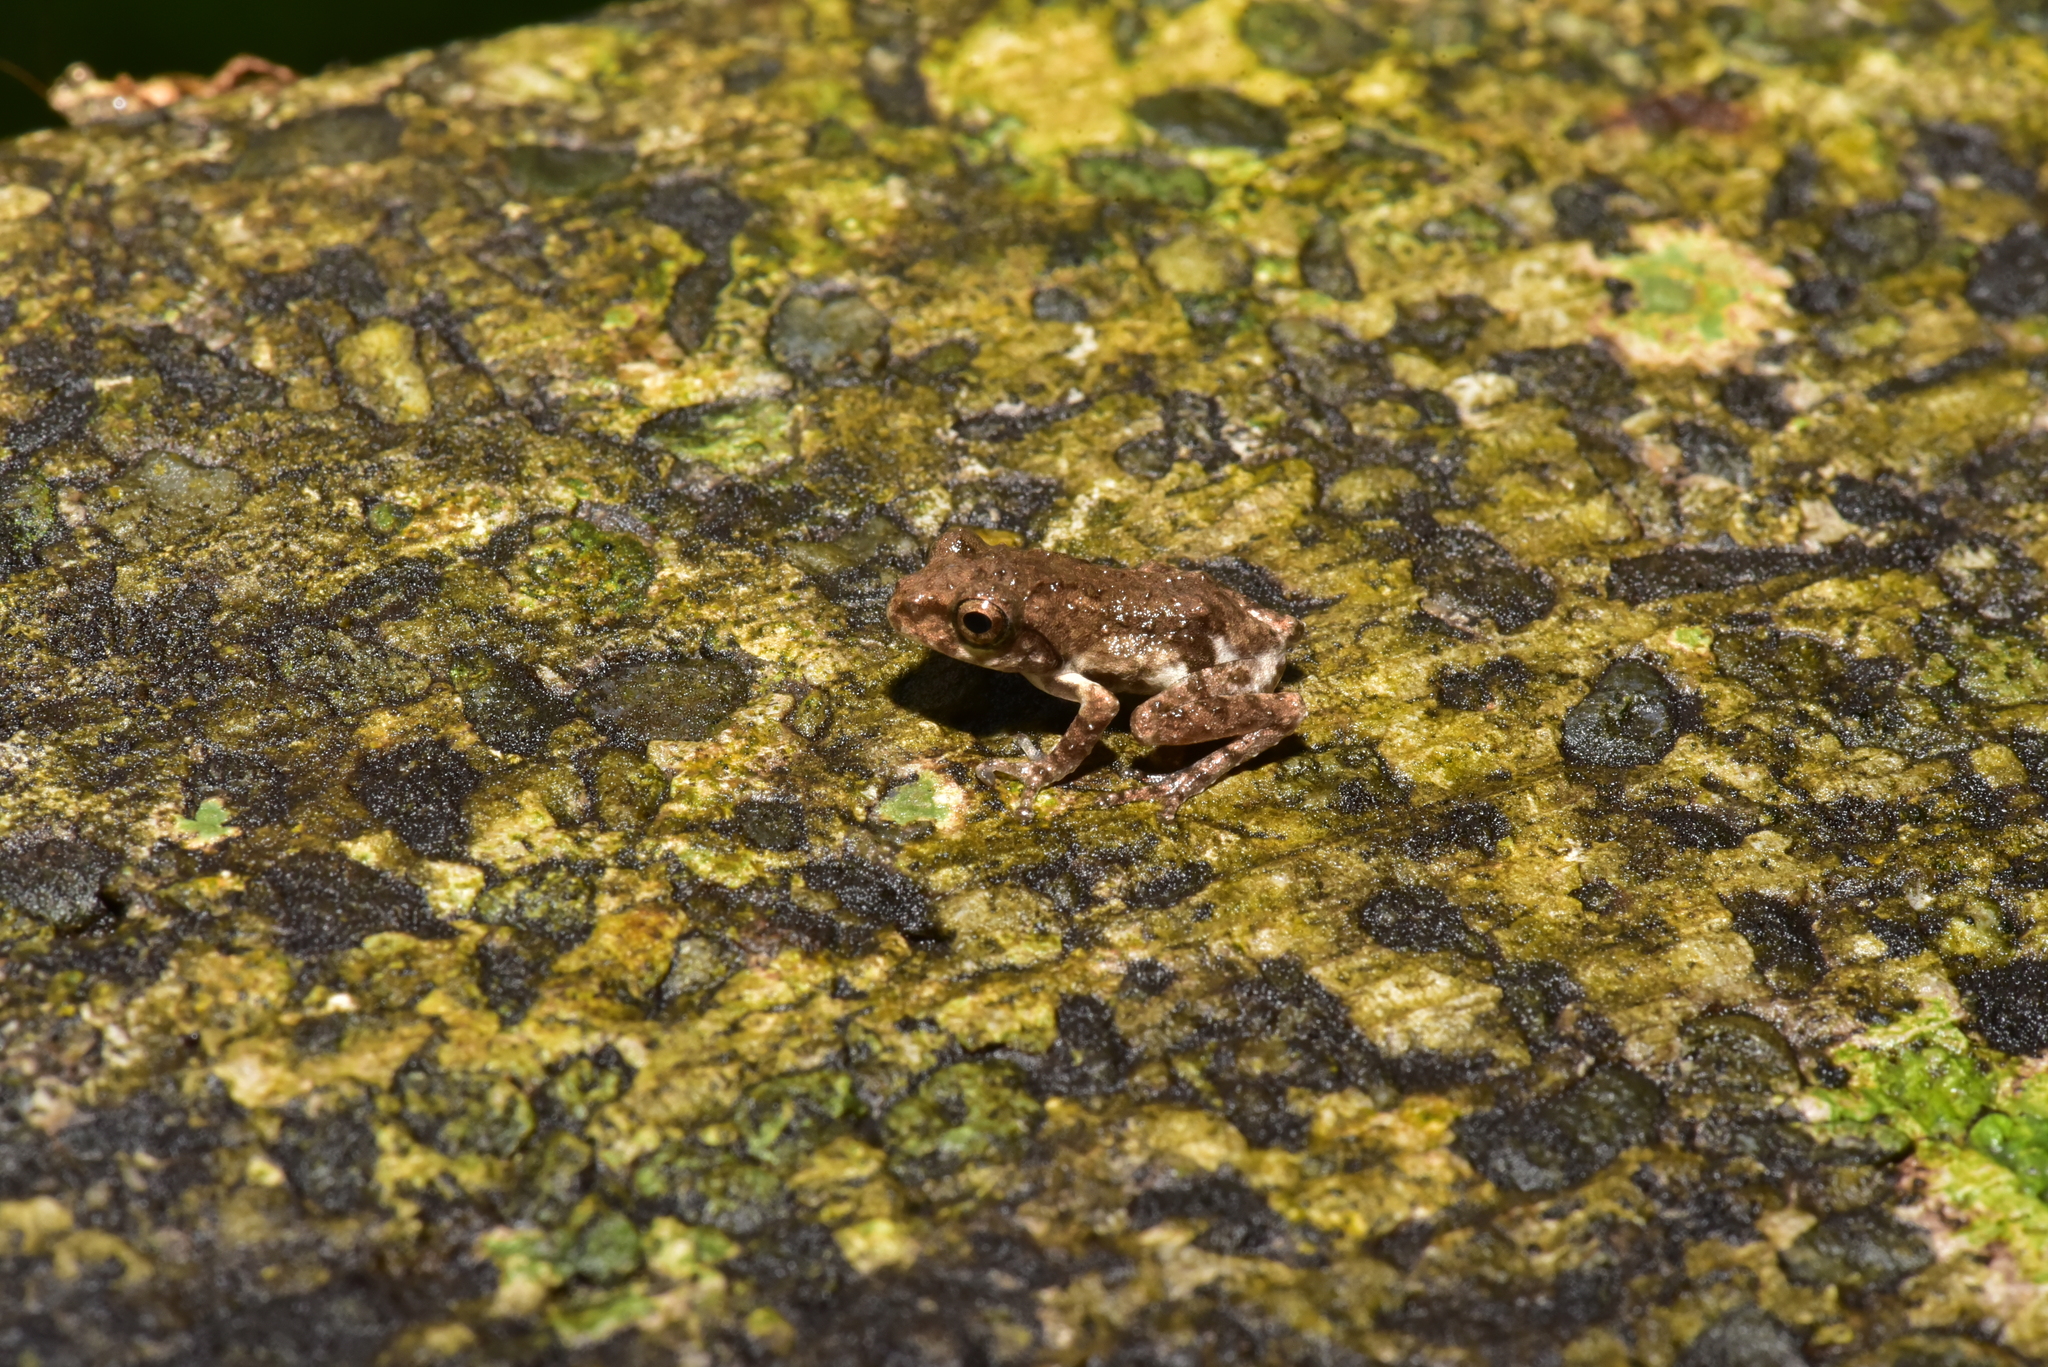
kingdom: Animalia
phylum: Chordata
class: Amphibia
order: Anura
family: Rhacophoridae
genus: Kurixalus
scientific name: Kurixalus idiootocus
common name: Temple treefrog
